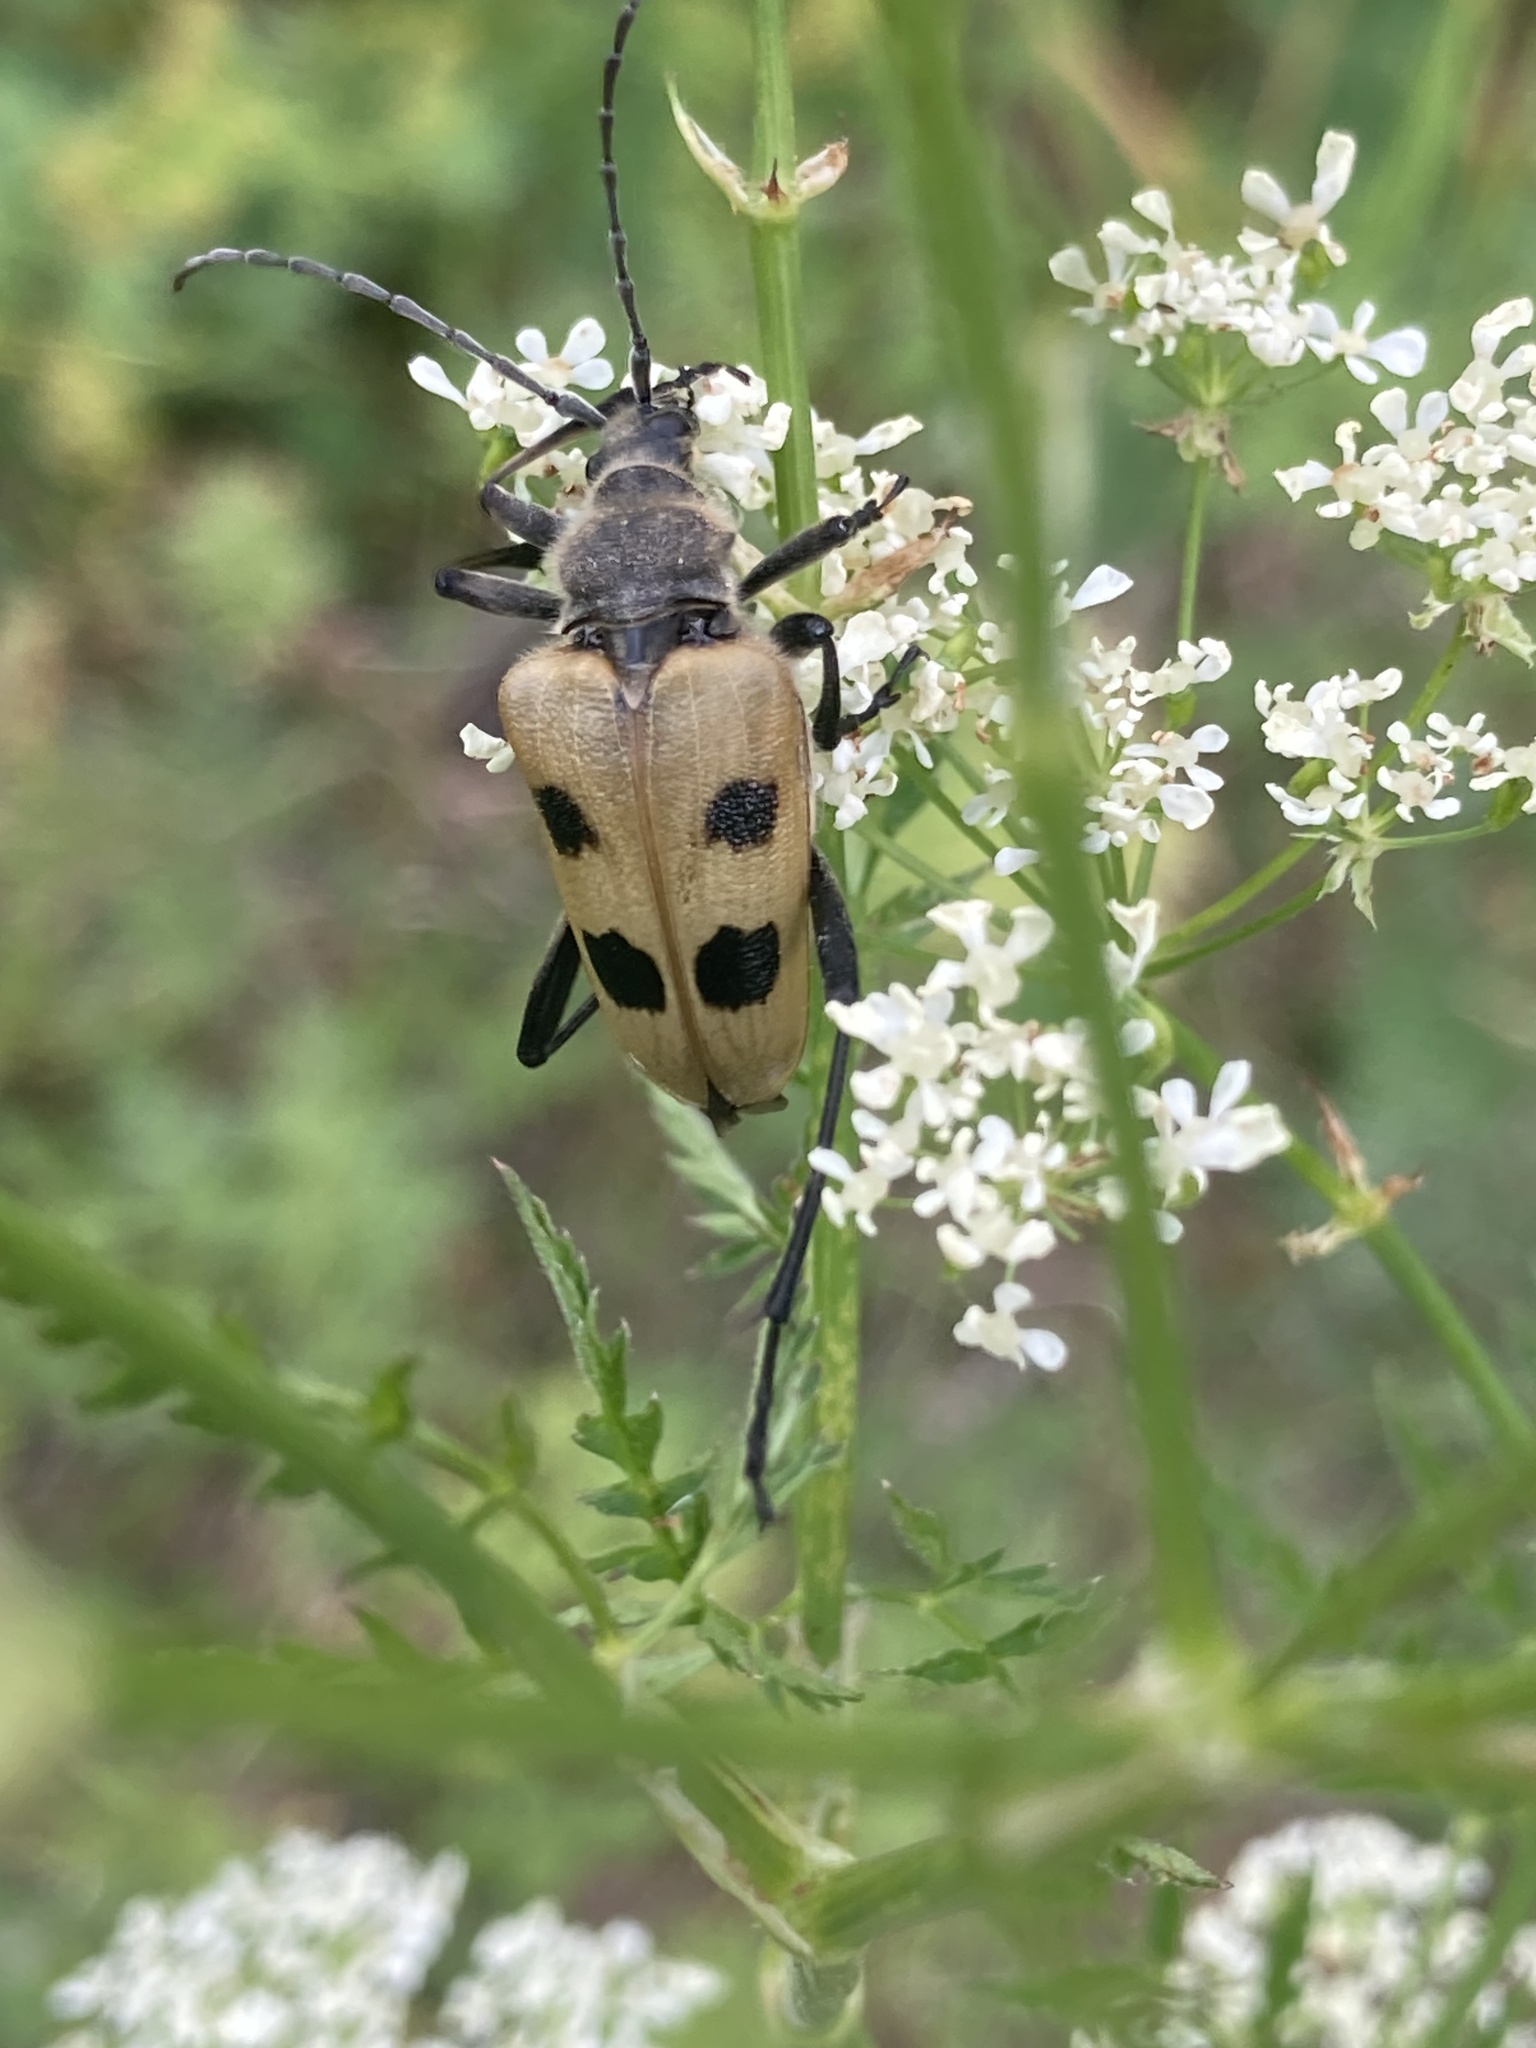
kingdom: Animalia
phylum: Arthropoda
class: Insecta
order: Coleoptera
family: Cerambycidae
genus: Pachyta
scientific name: Pachyta quadrimaculata
